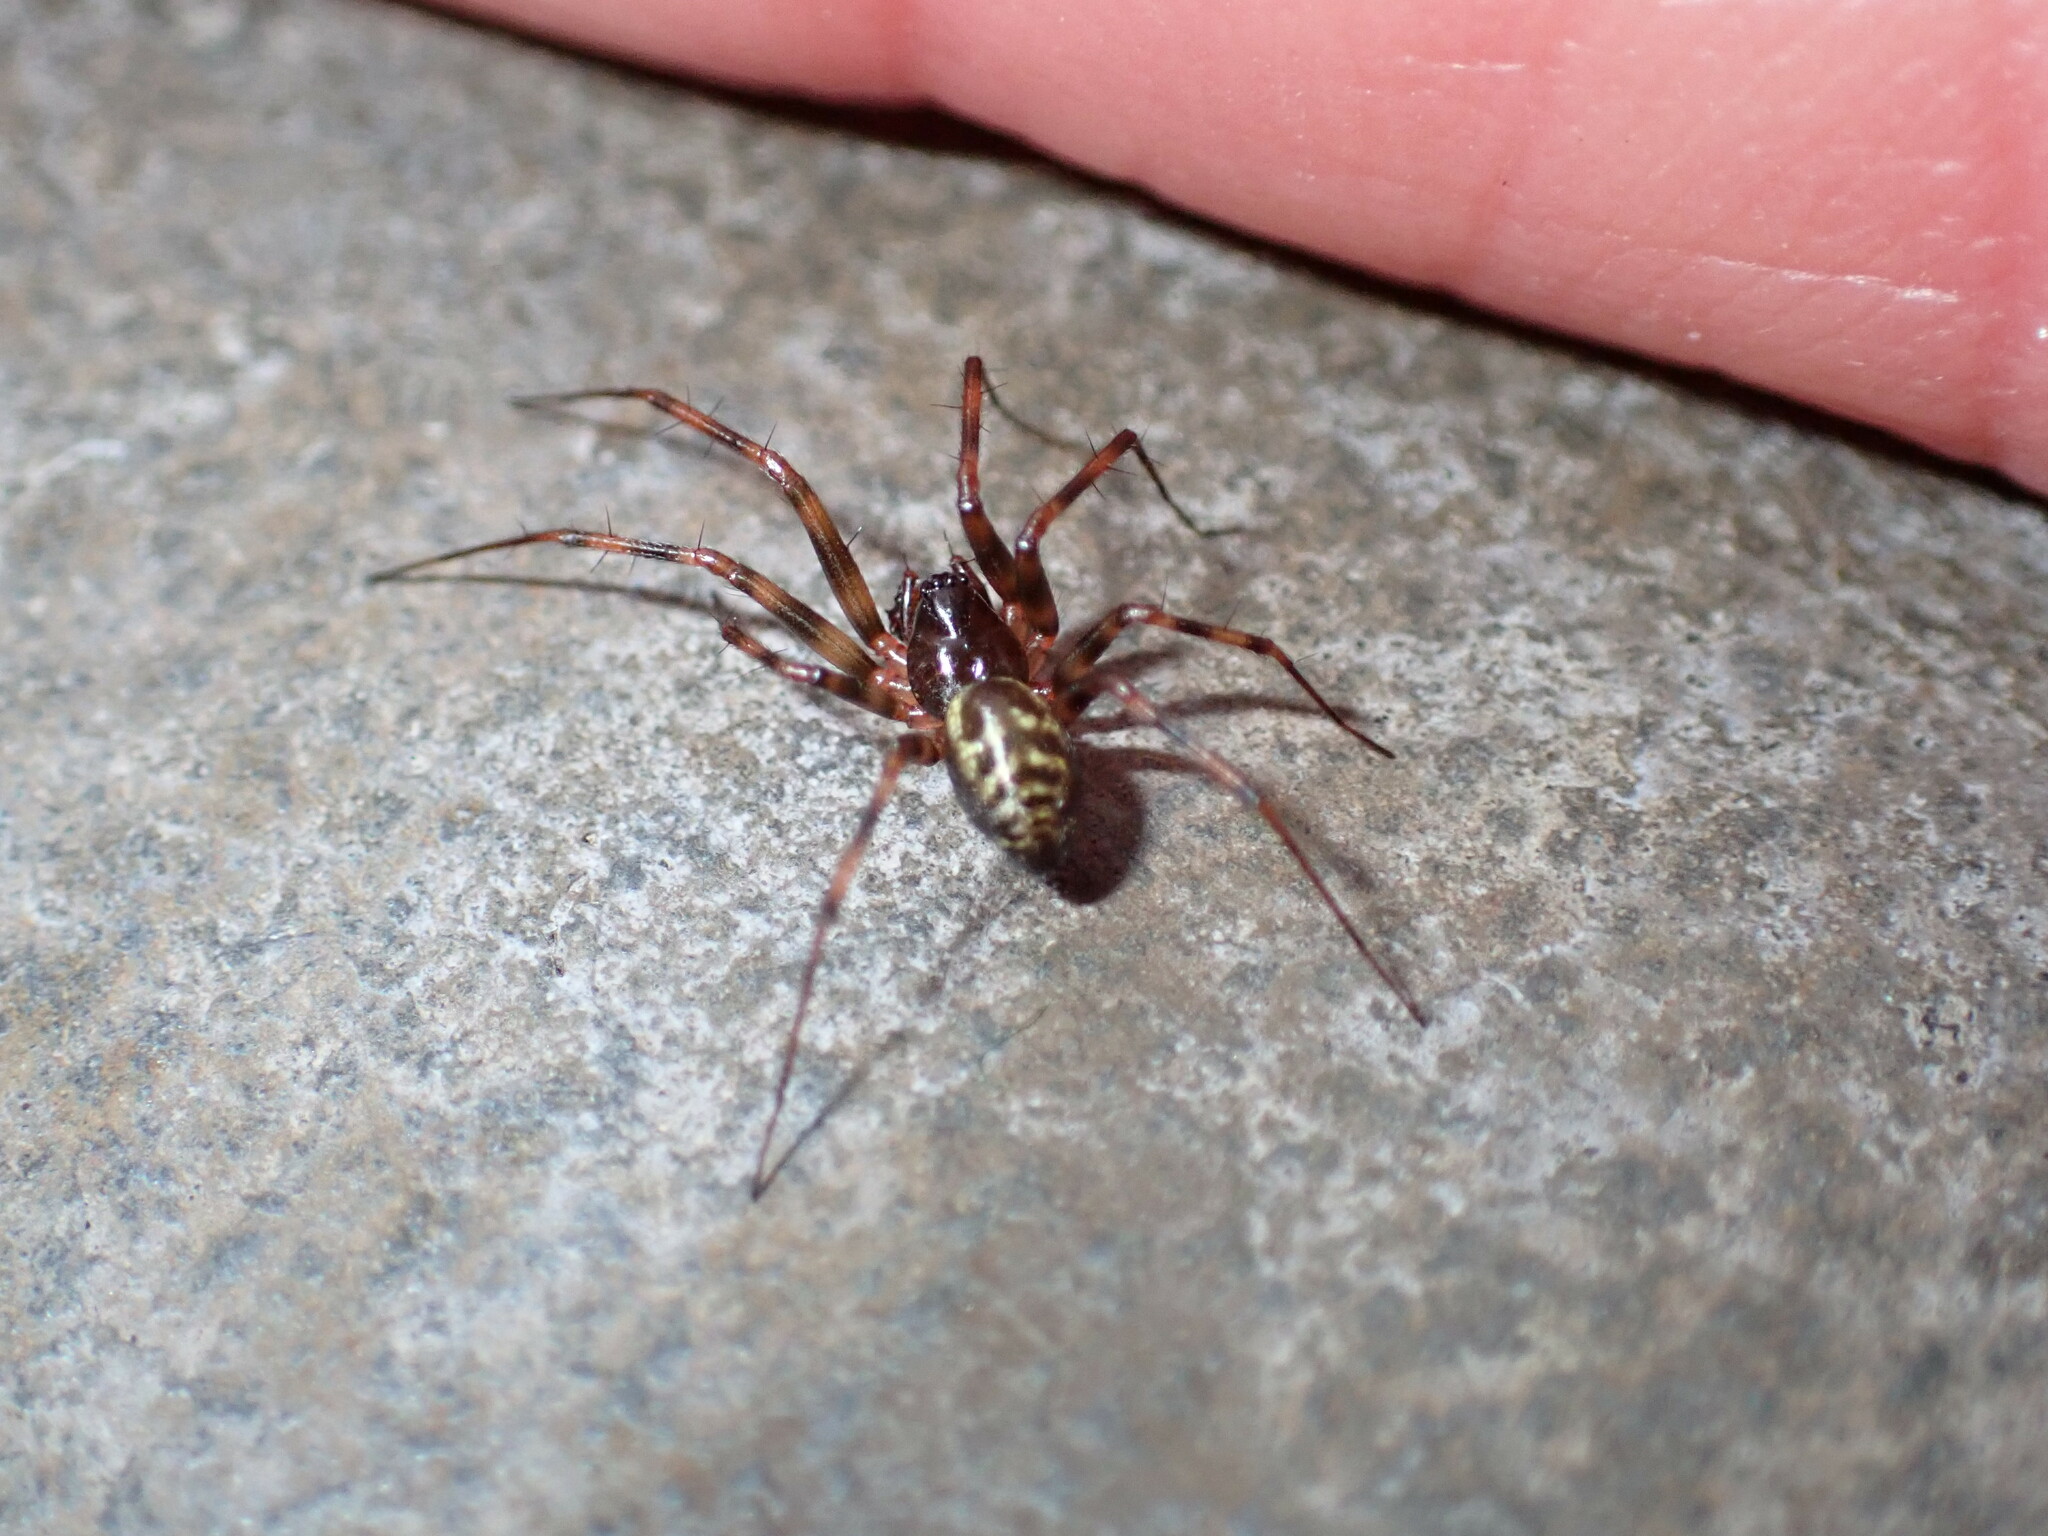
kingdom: Animalia
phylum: Arthropoda
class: Arachnida
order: Araneae
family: Linyphiidae
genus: Lepthyphantes
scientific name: Lepthyphantes minutus
